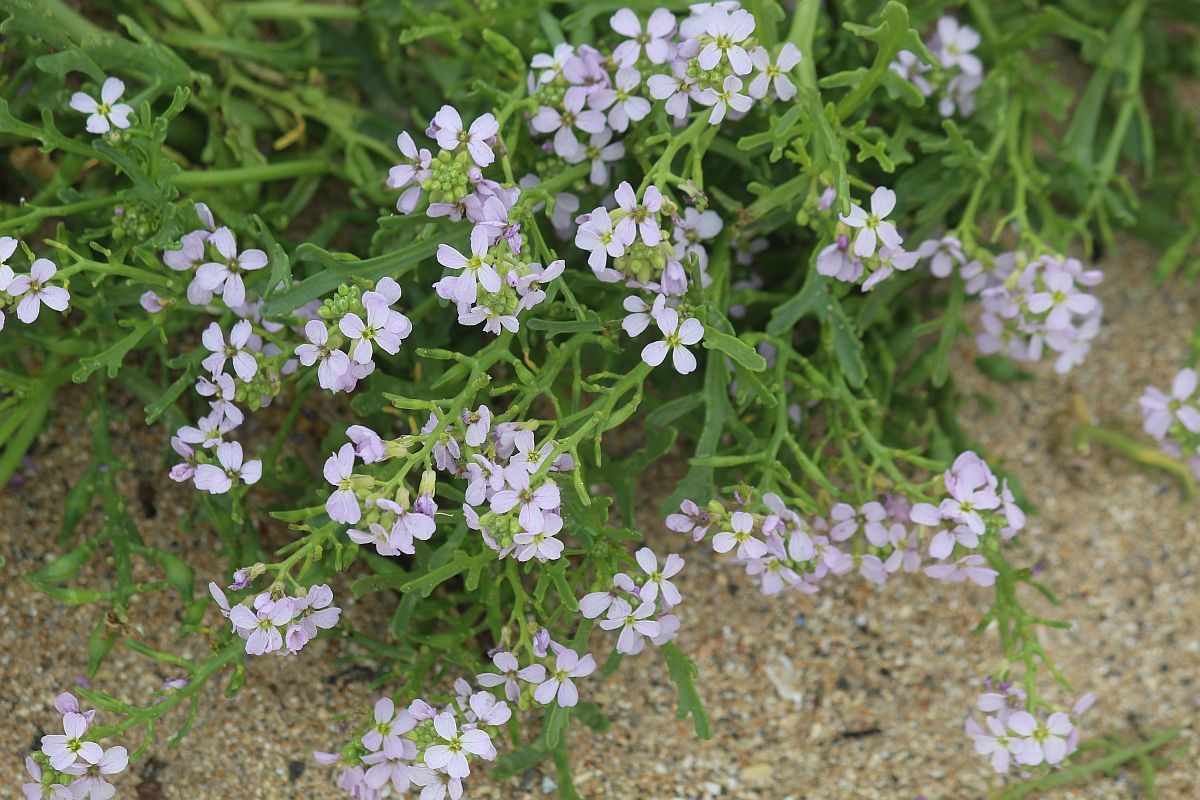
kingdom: Plantae
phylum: Tracheophyta
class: Magnoliopsida
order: Brassicales
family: Brassicaceae
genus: Cakile
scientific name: Cakile maritima
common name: Sea rocket
